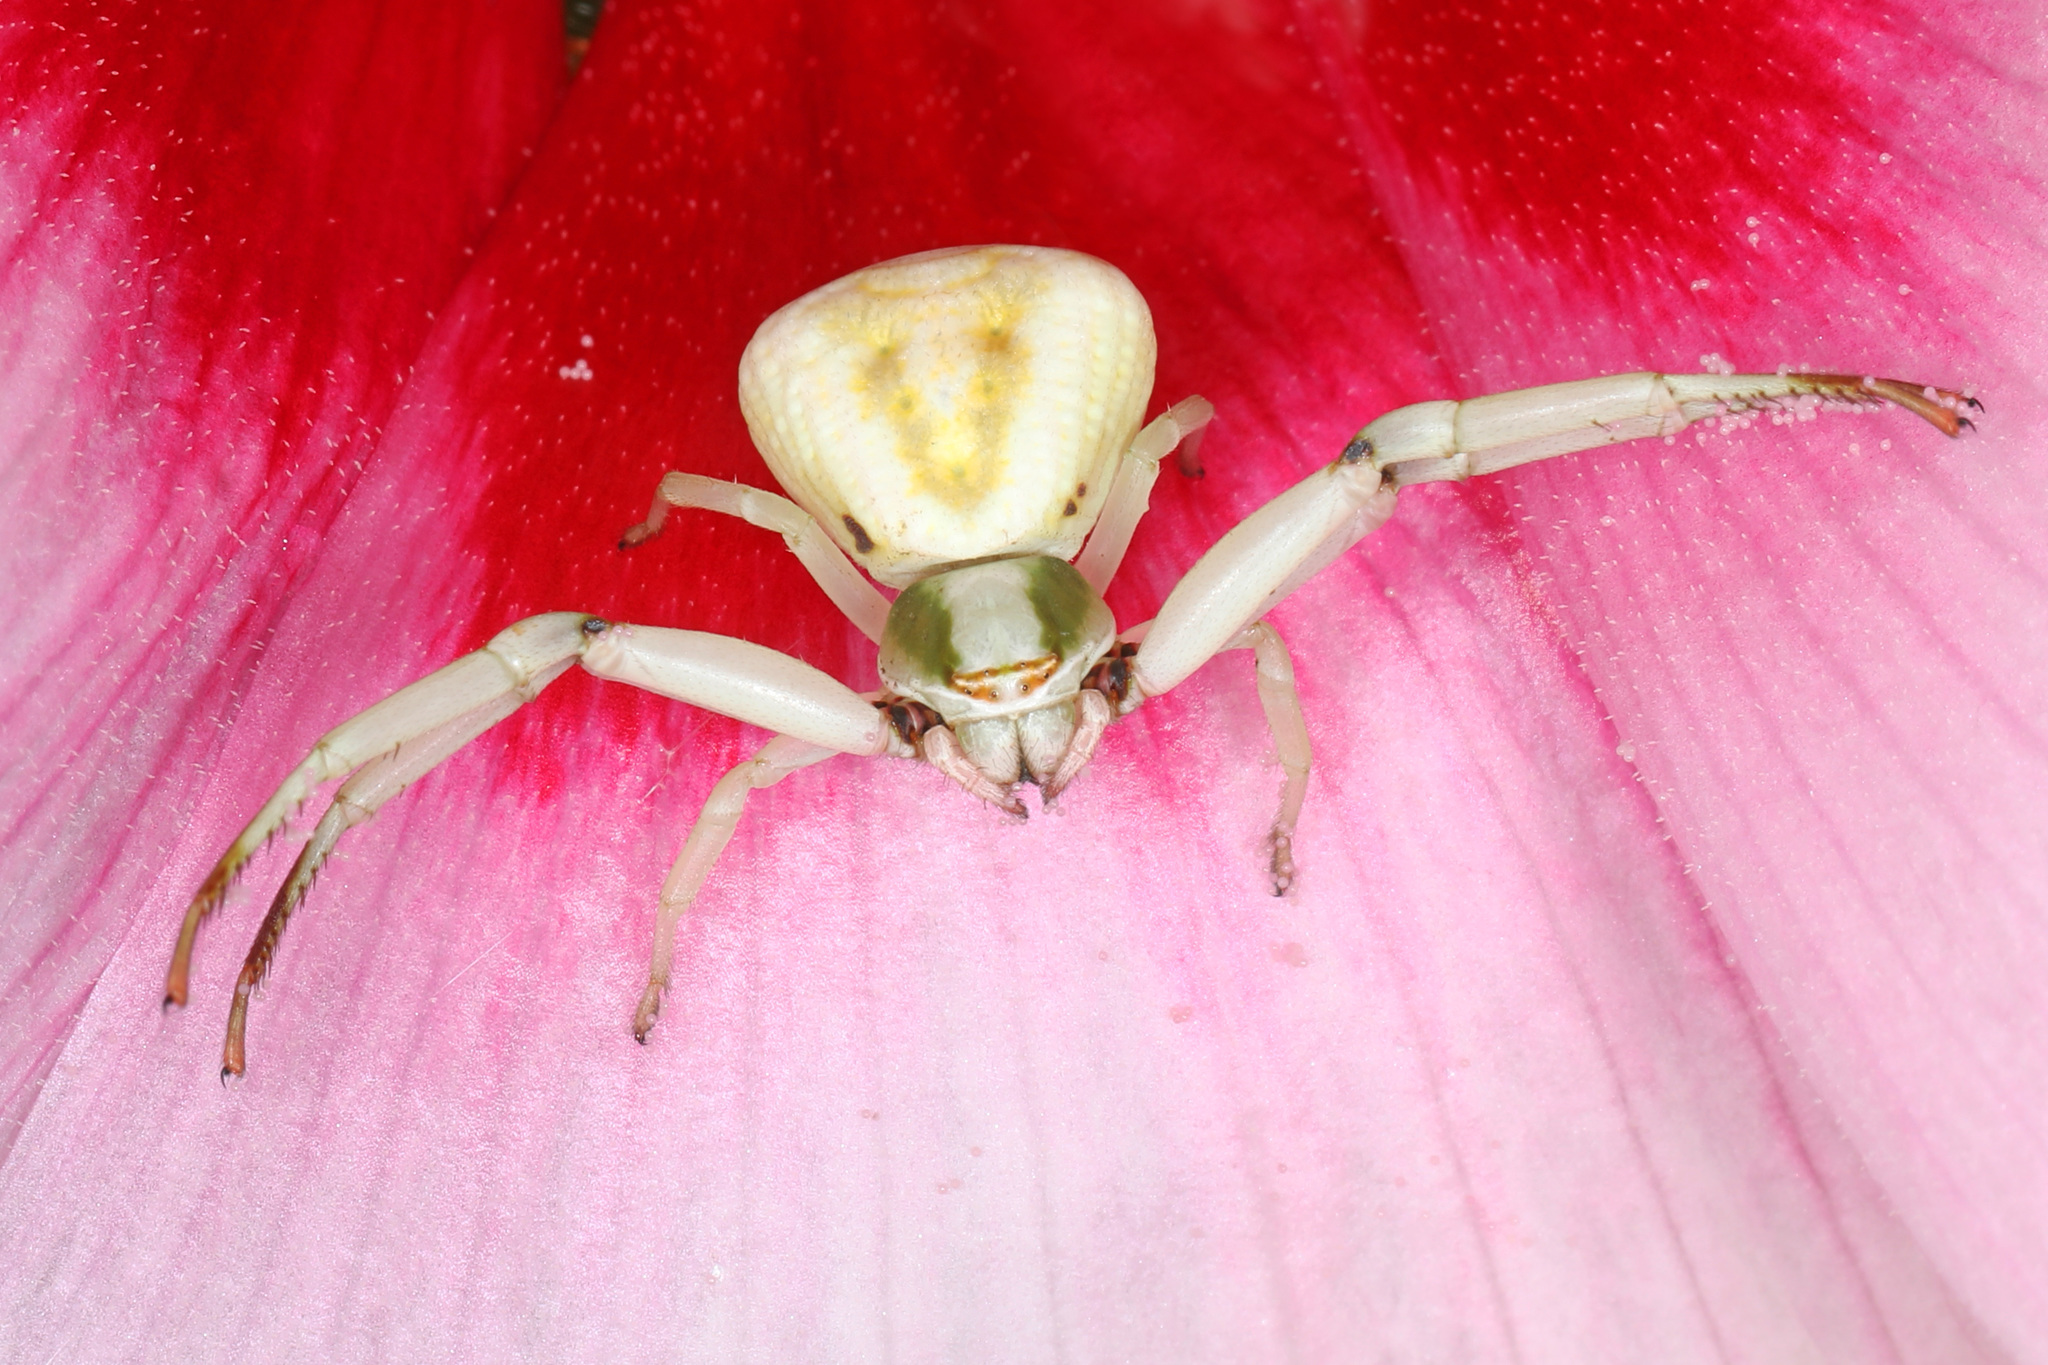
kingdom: Animalia
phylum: Arthropoda
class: Arachnida
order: Araneae
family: Thomisidae
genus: Misumenoides
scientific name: Misumenoides formosipes
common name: White-banded crab spider
